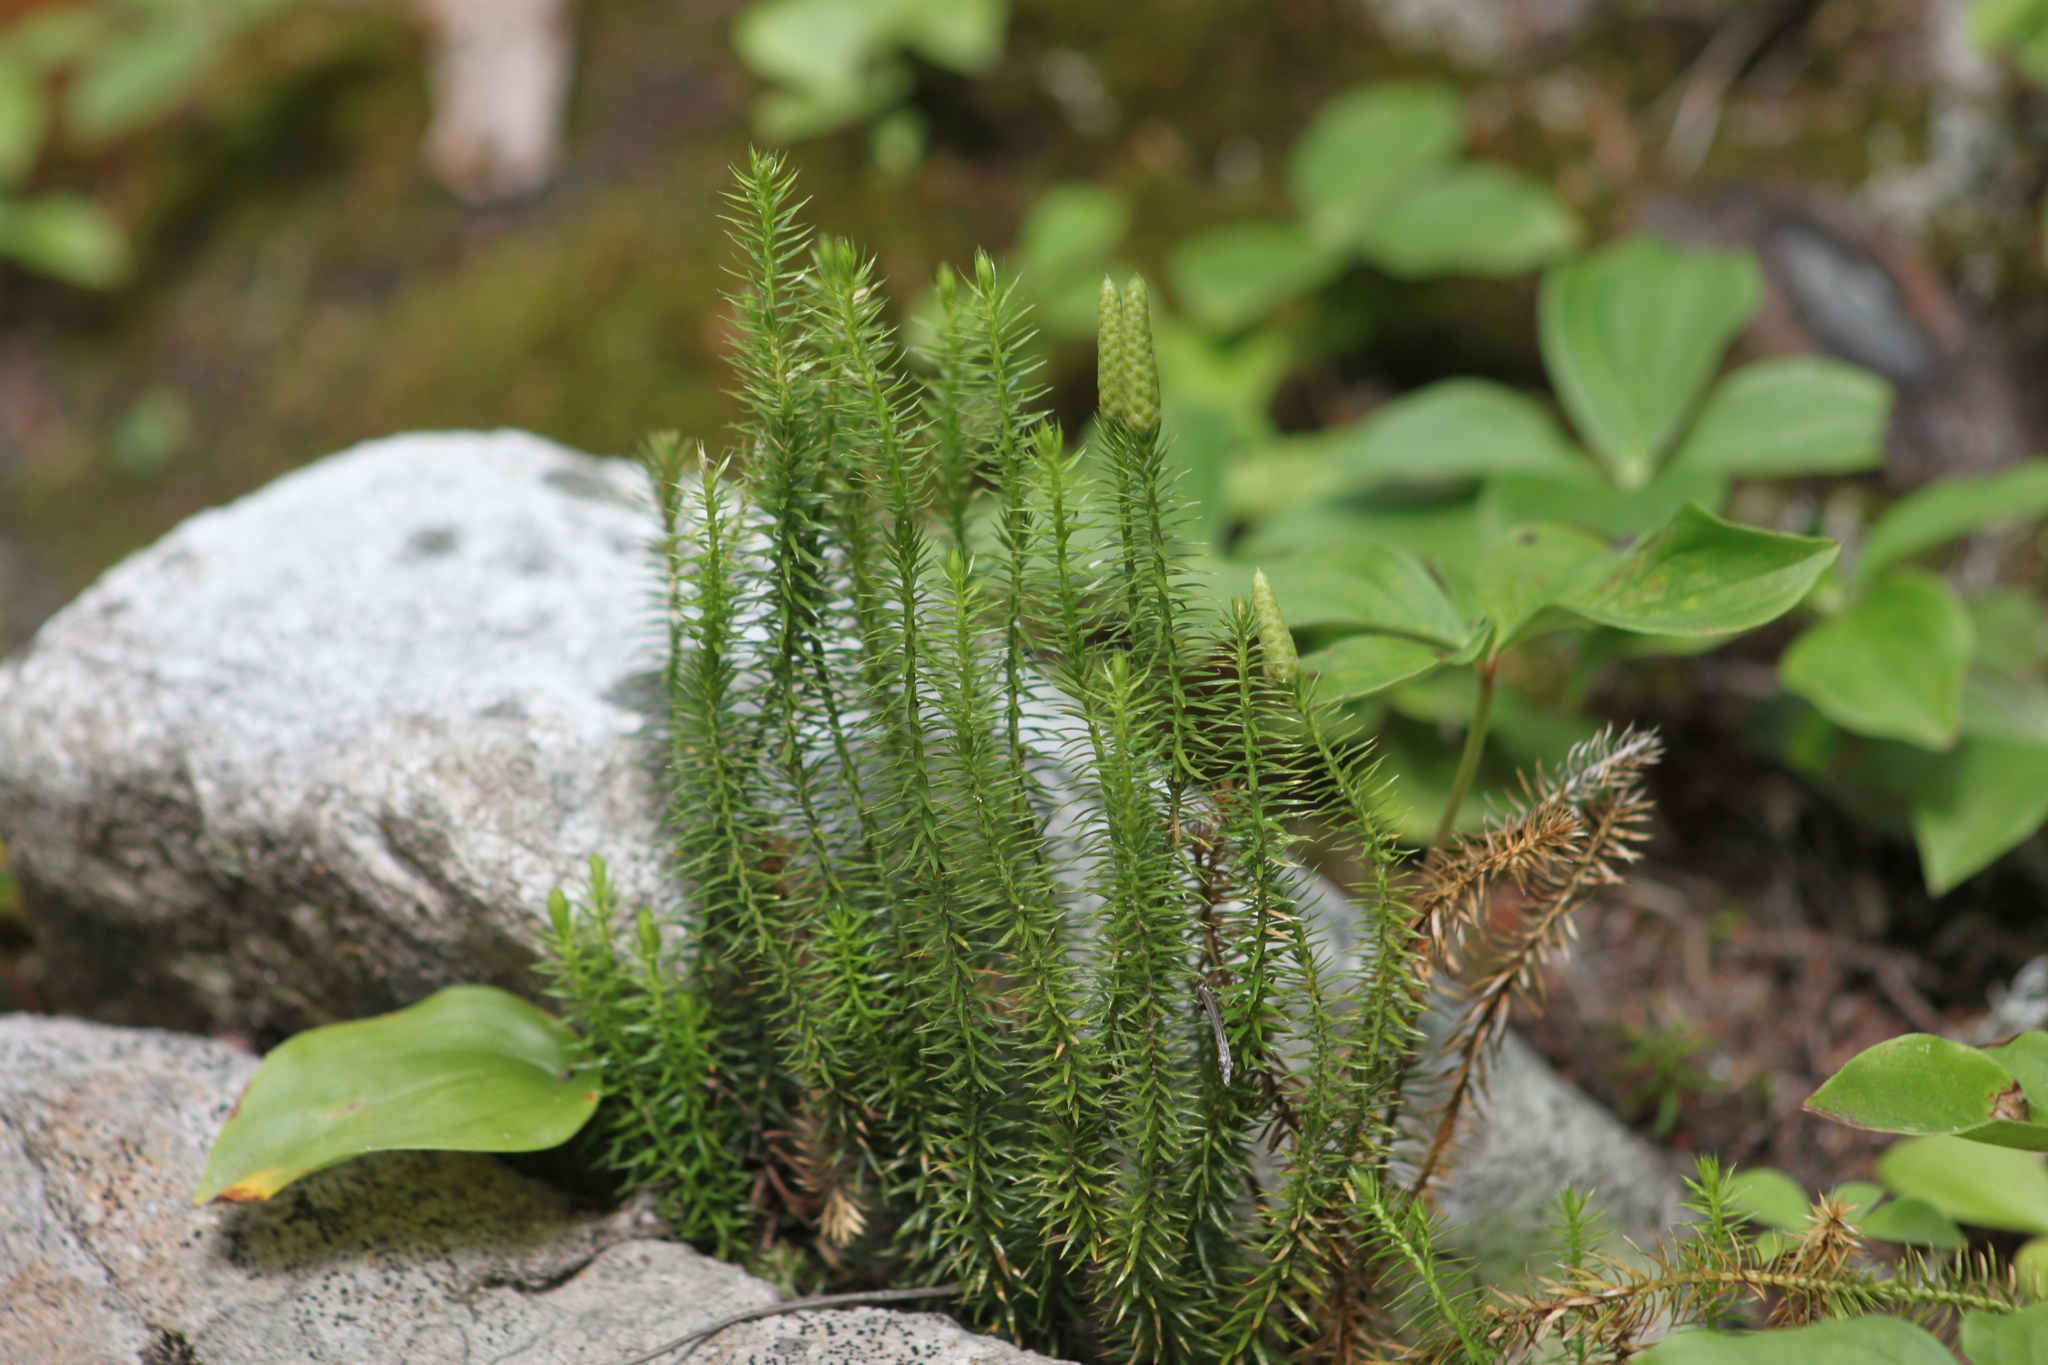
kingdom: Plantae
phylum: Tracheophyta
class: Lycopodiopsida
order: Lycopodiales
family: Lycopodiaceae
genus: Spinulum
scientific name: Spinulum annotinum
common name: Interrupted club-moss
